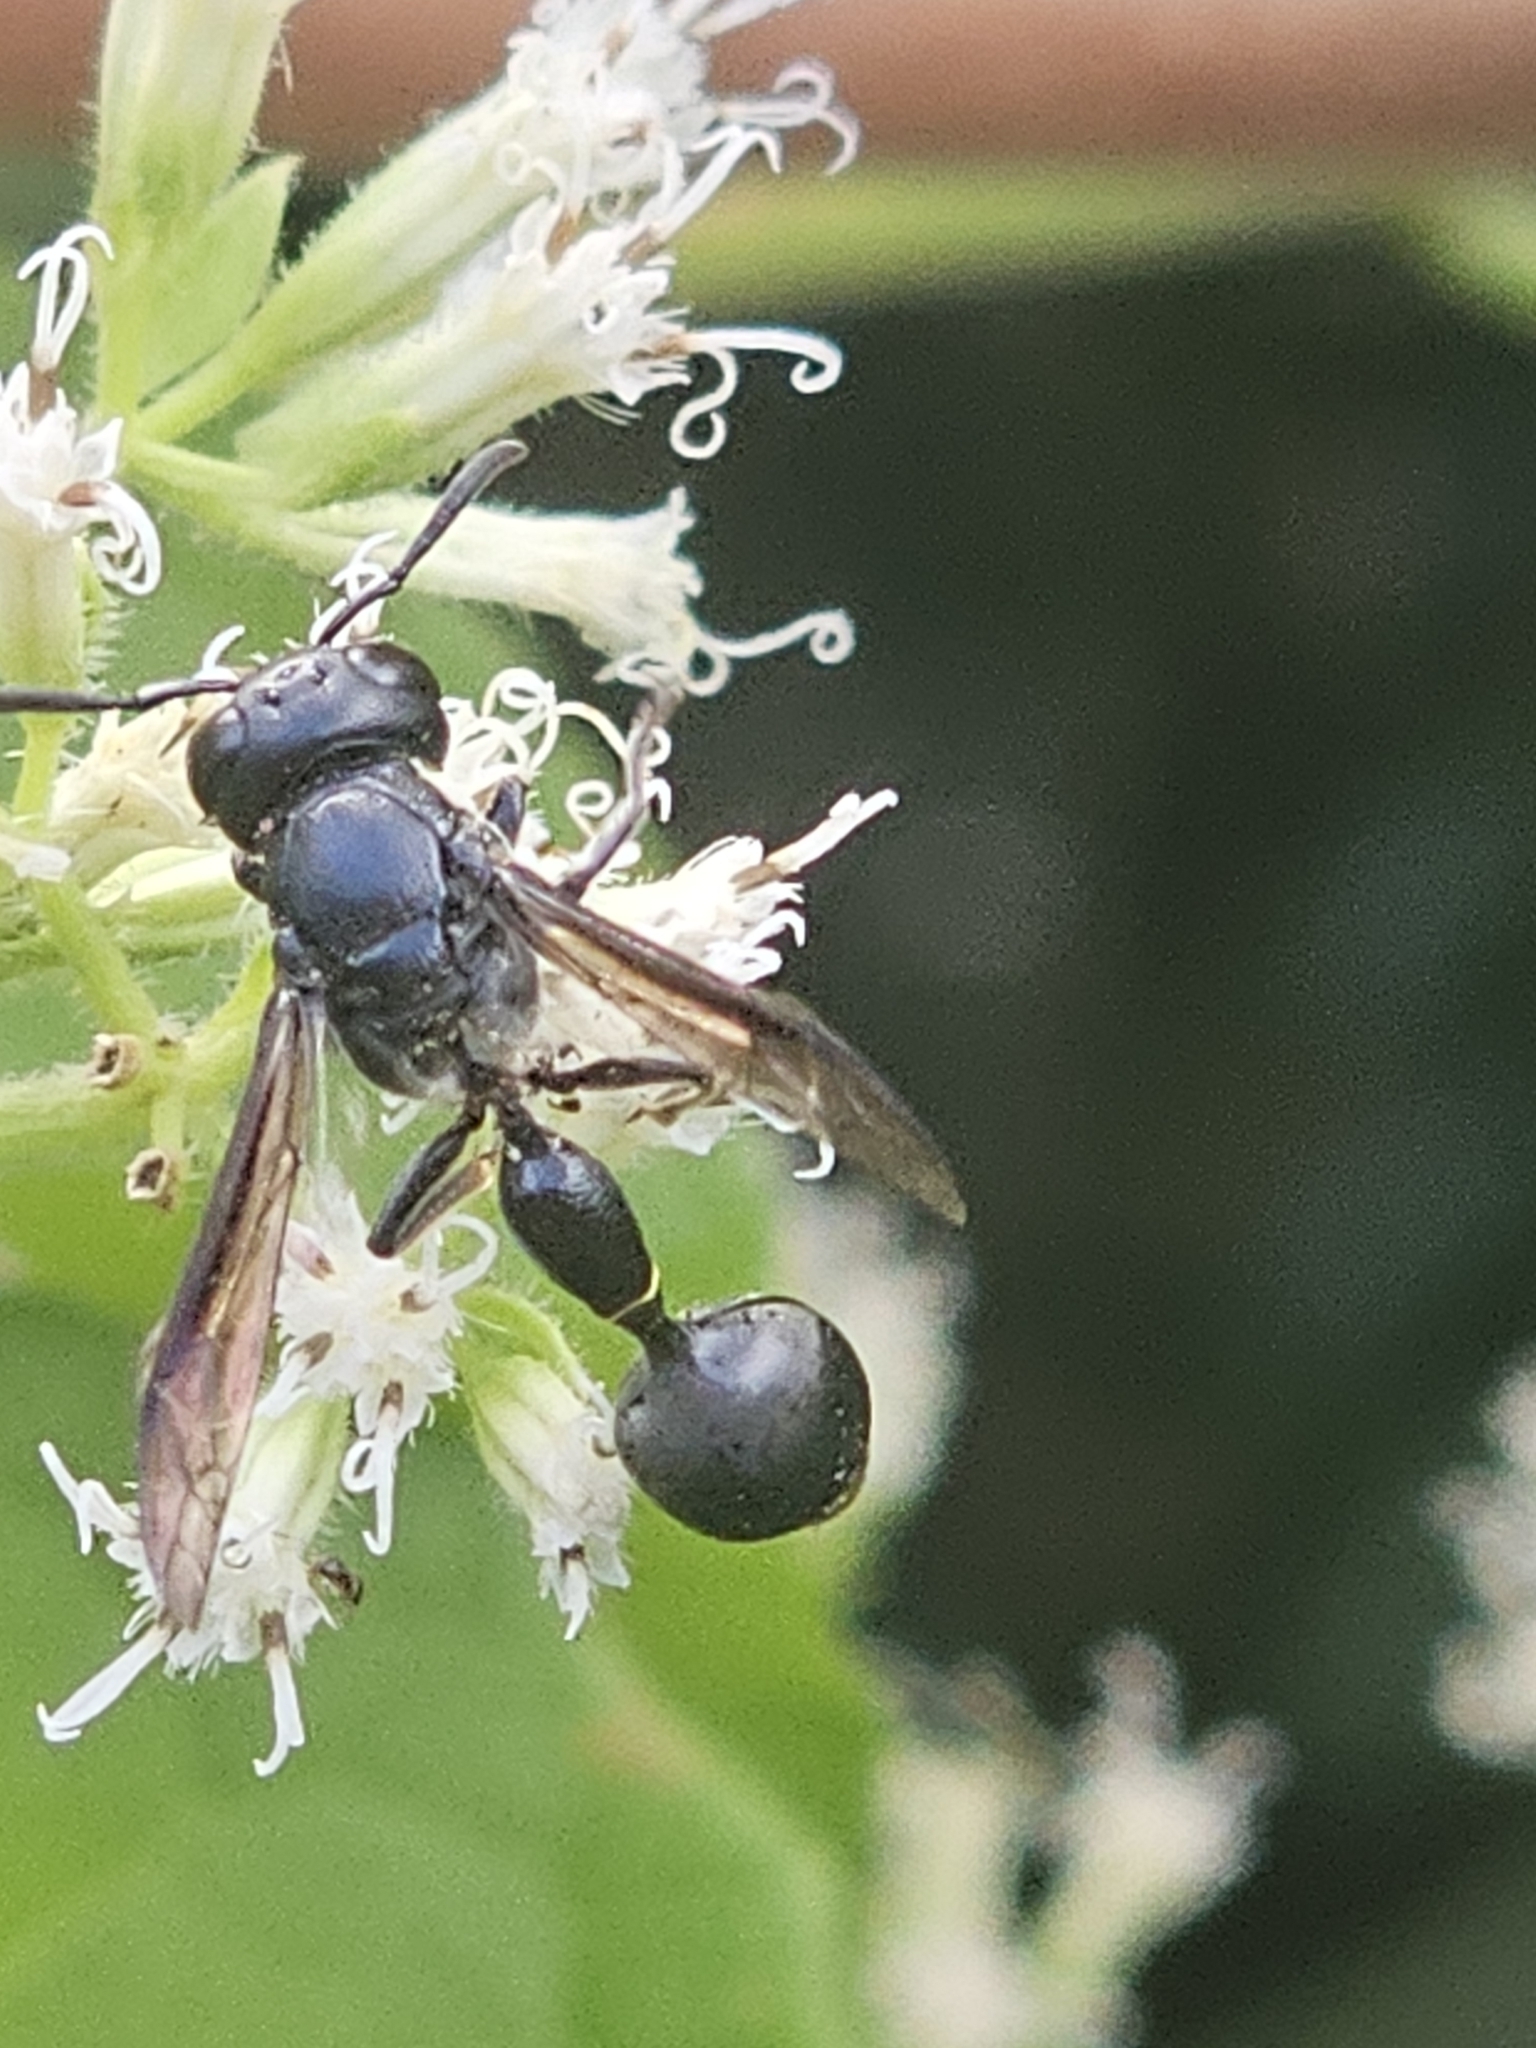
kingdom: Animalia
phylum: Arthropoda
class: Insecta
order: Hymenoptera
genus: Zethusculus
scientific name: Zethusculus
